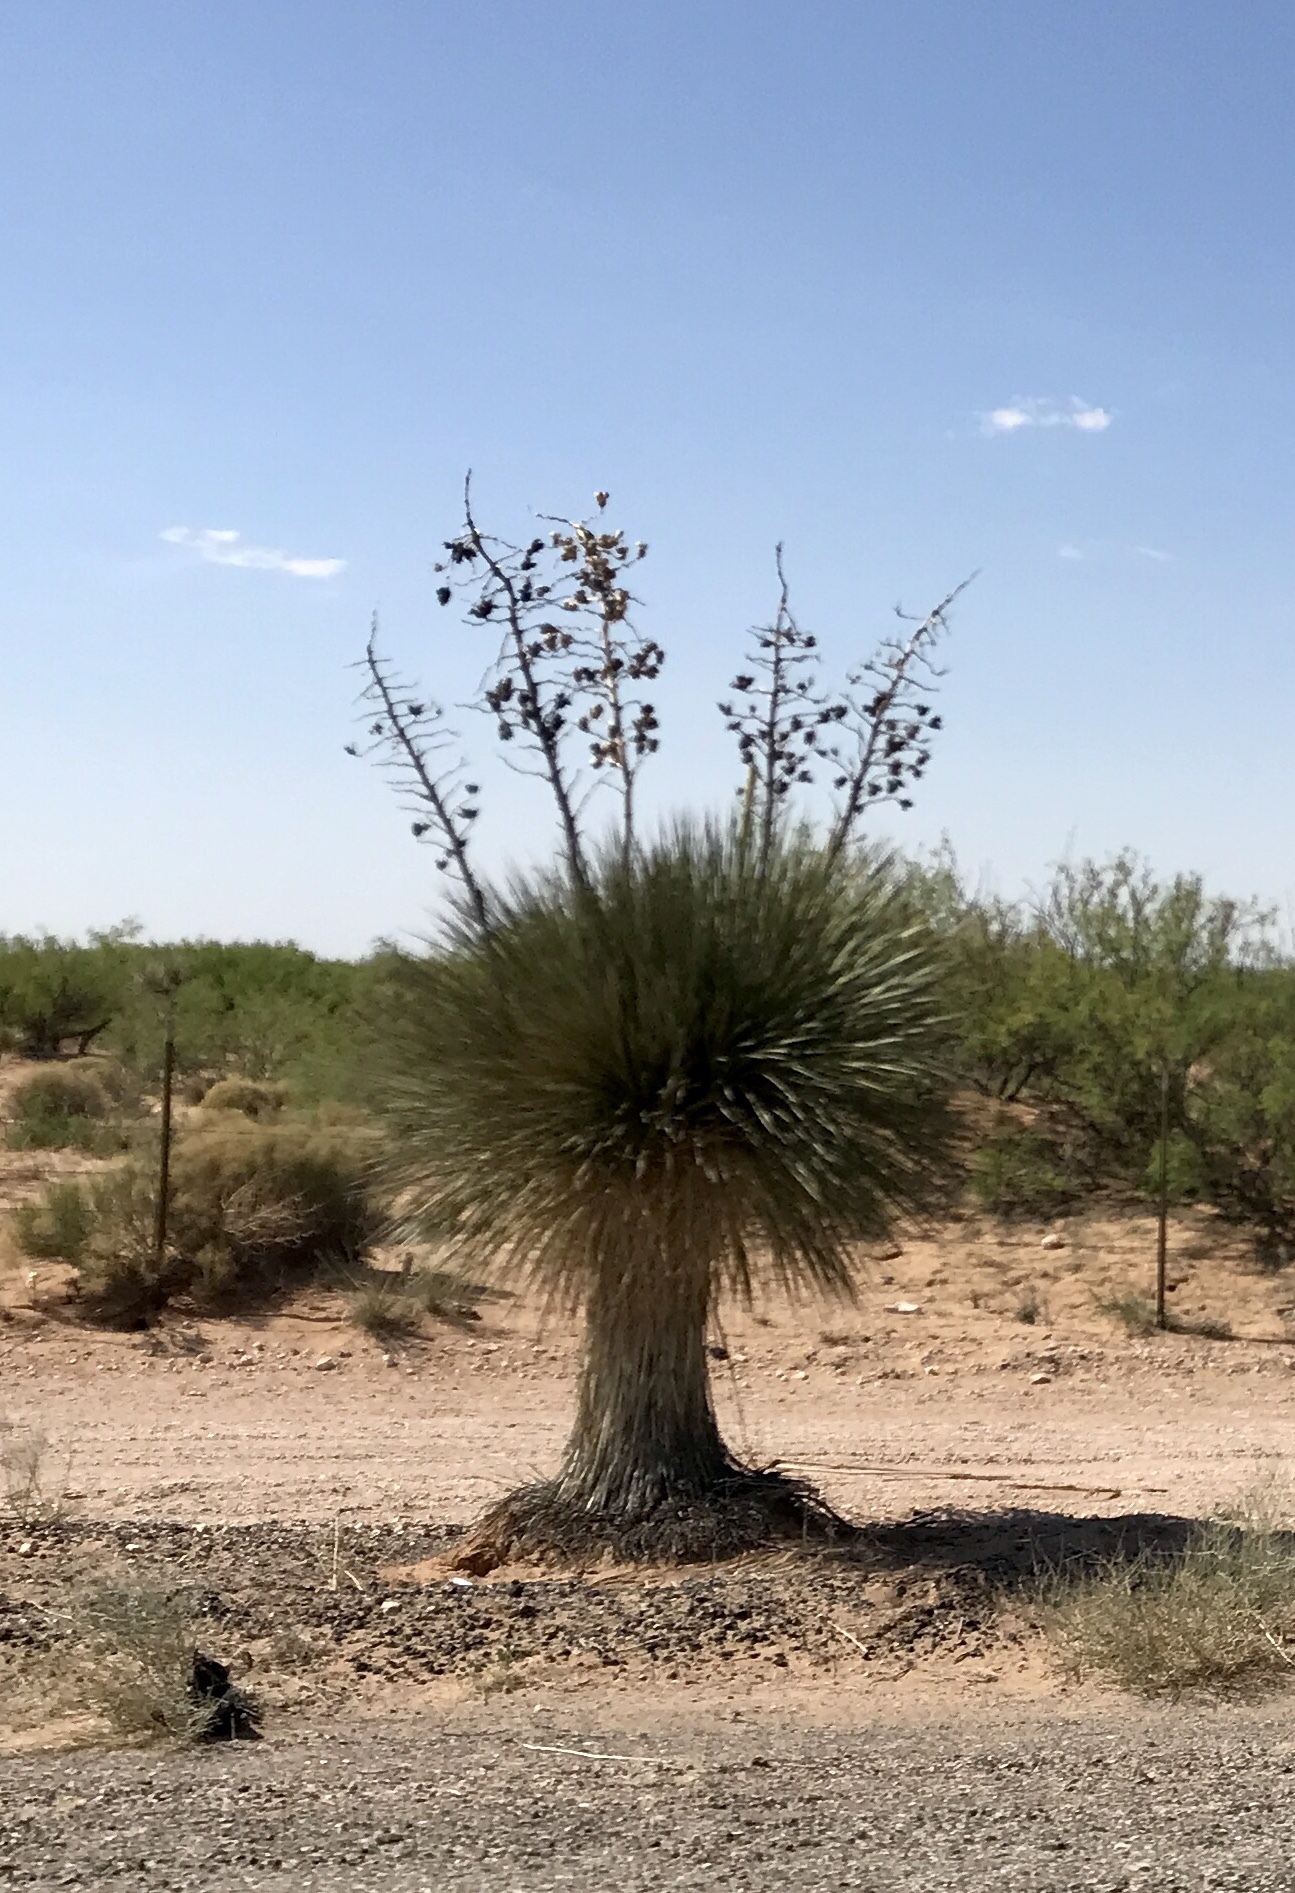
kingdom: Plantae
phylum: Tracheophyta
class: Liliopsida
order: Asparagales
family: Asparagaceae
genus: Yucca
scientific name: Yucca elata
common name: Palmella
